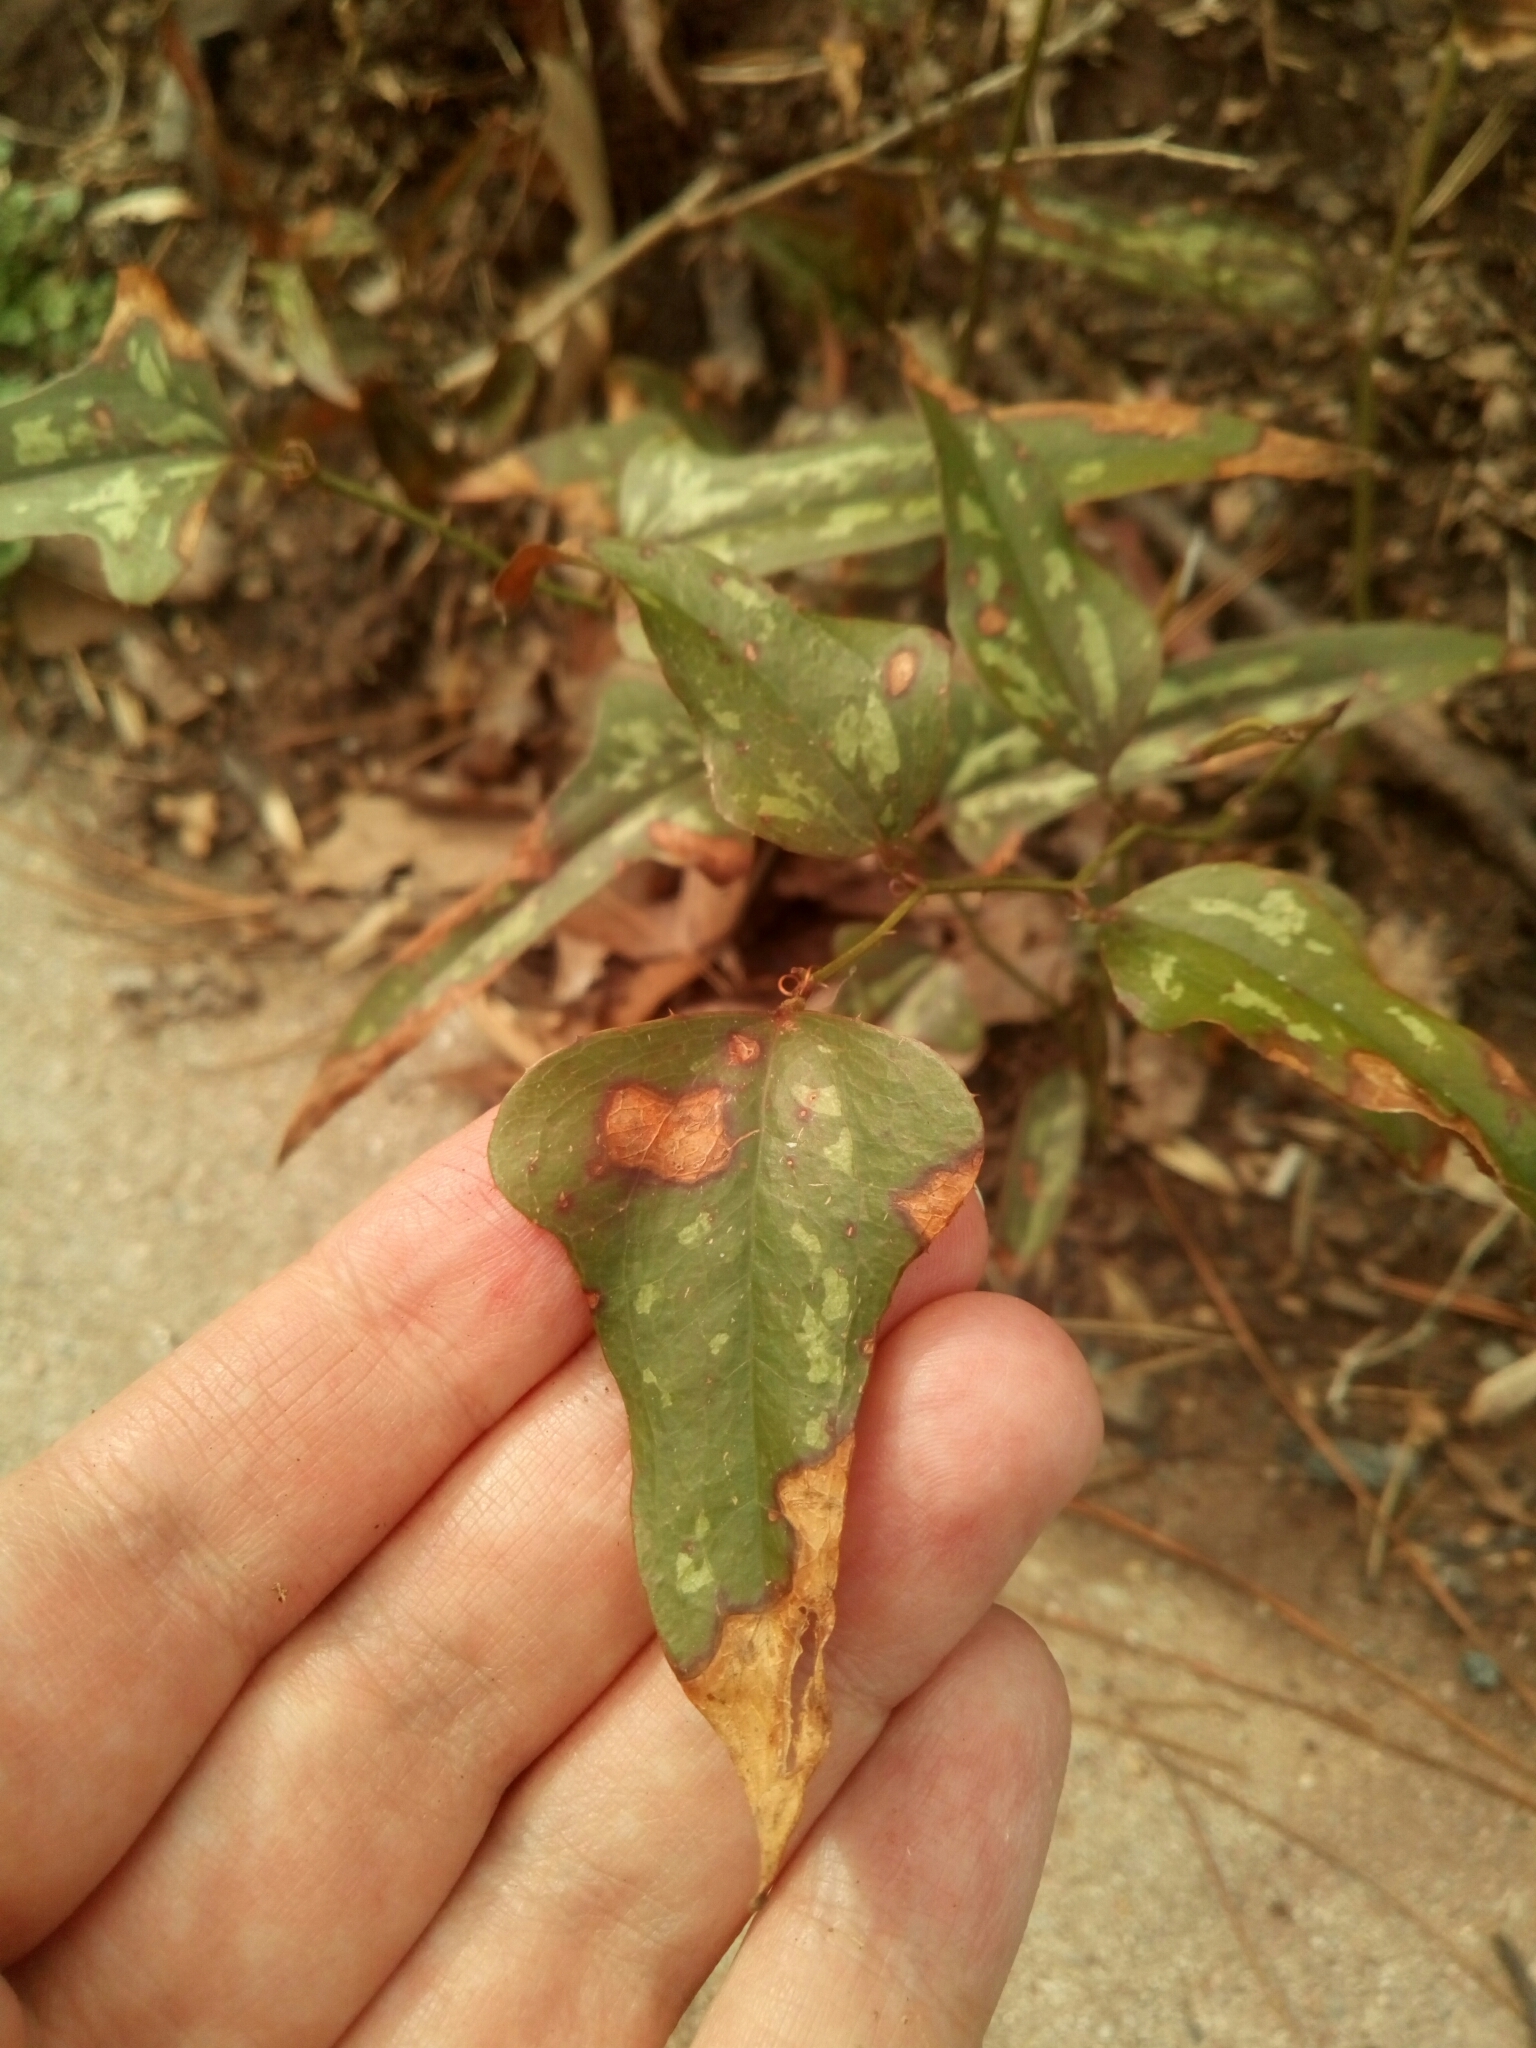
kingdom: Plantae
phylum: Tracheophyta
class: Liliopsida
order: Liliales
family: Smilacaceae
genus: Smilax
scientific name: Smilax bona-nox
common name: Catbrier
